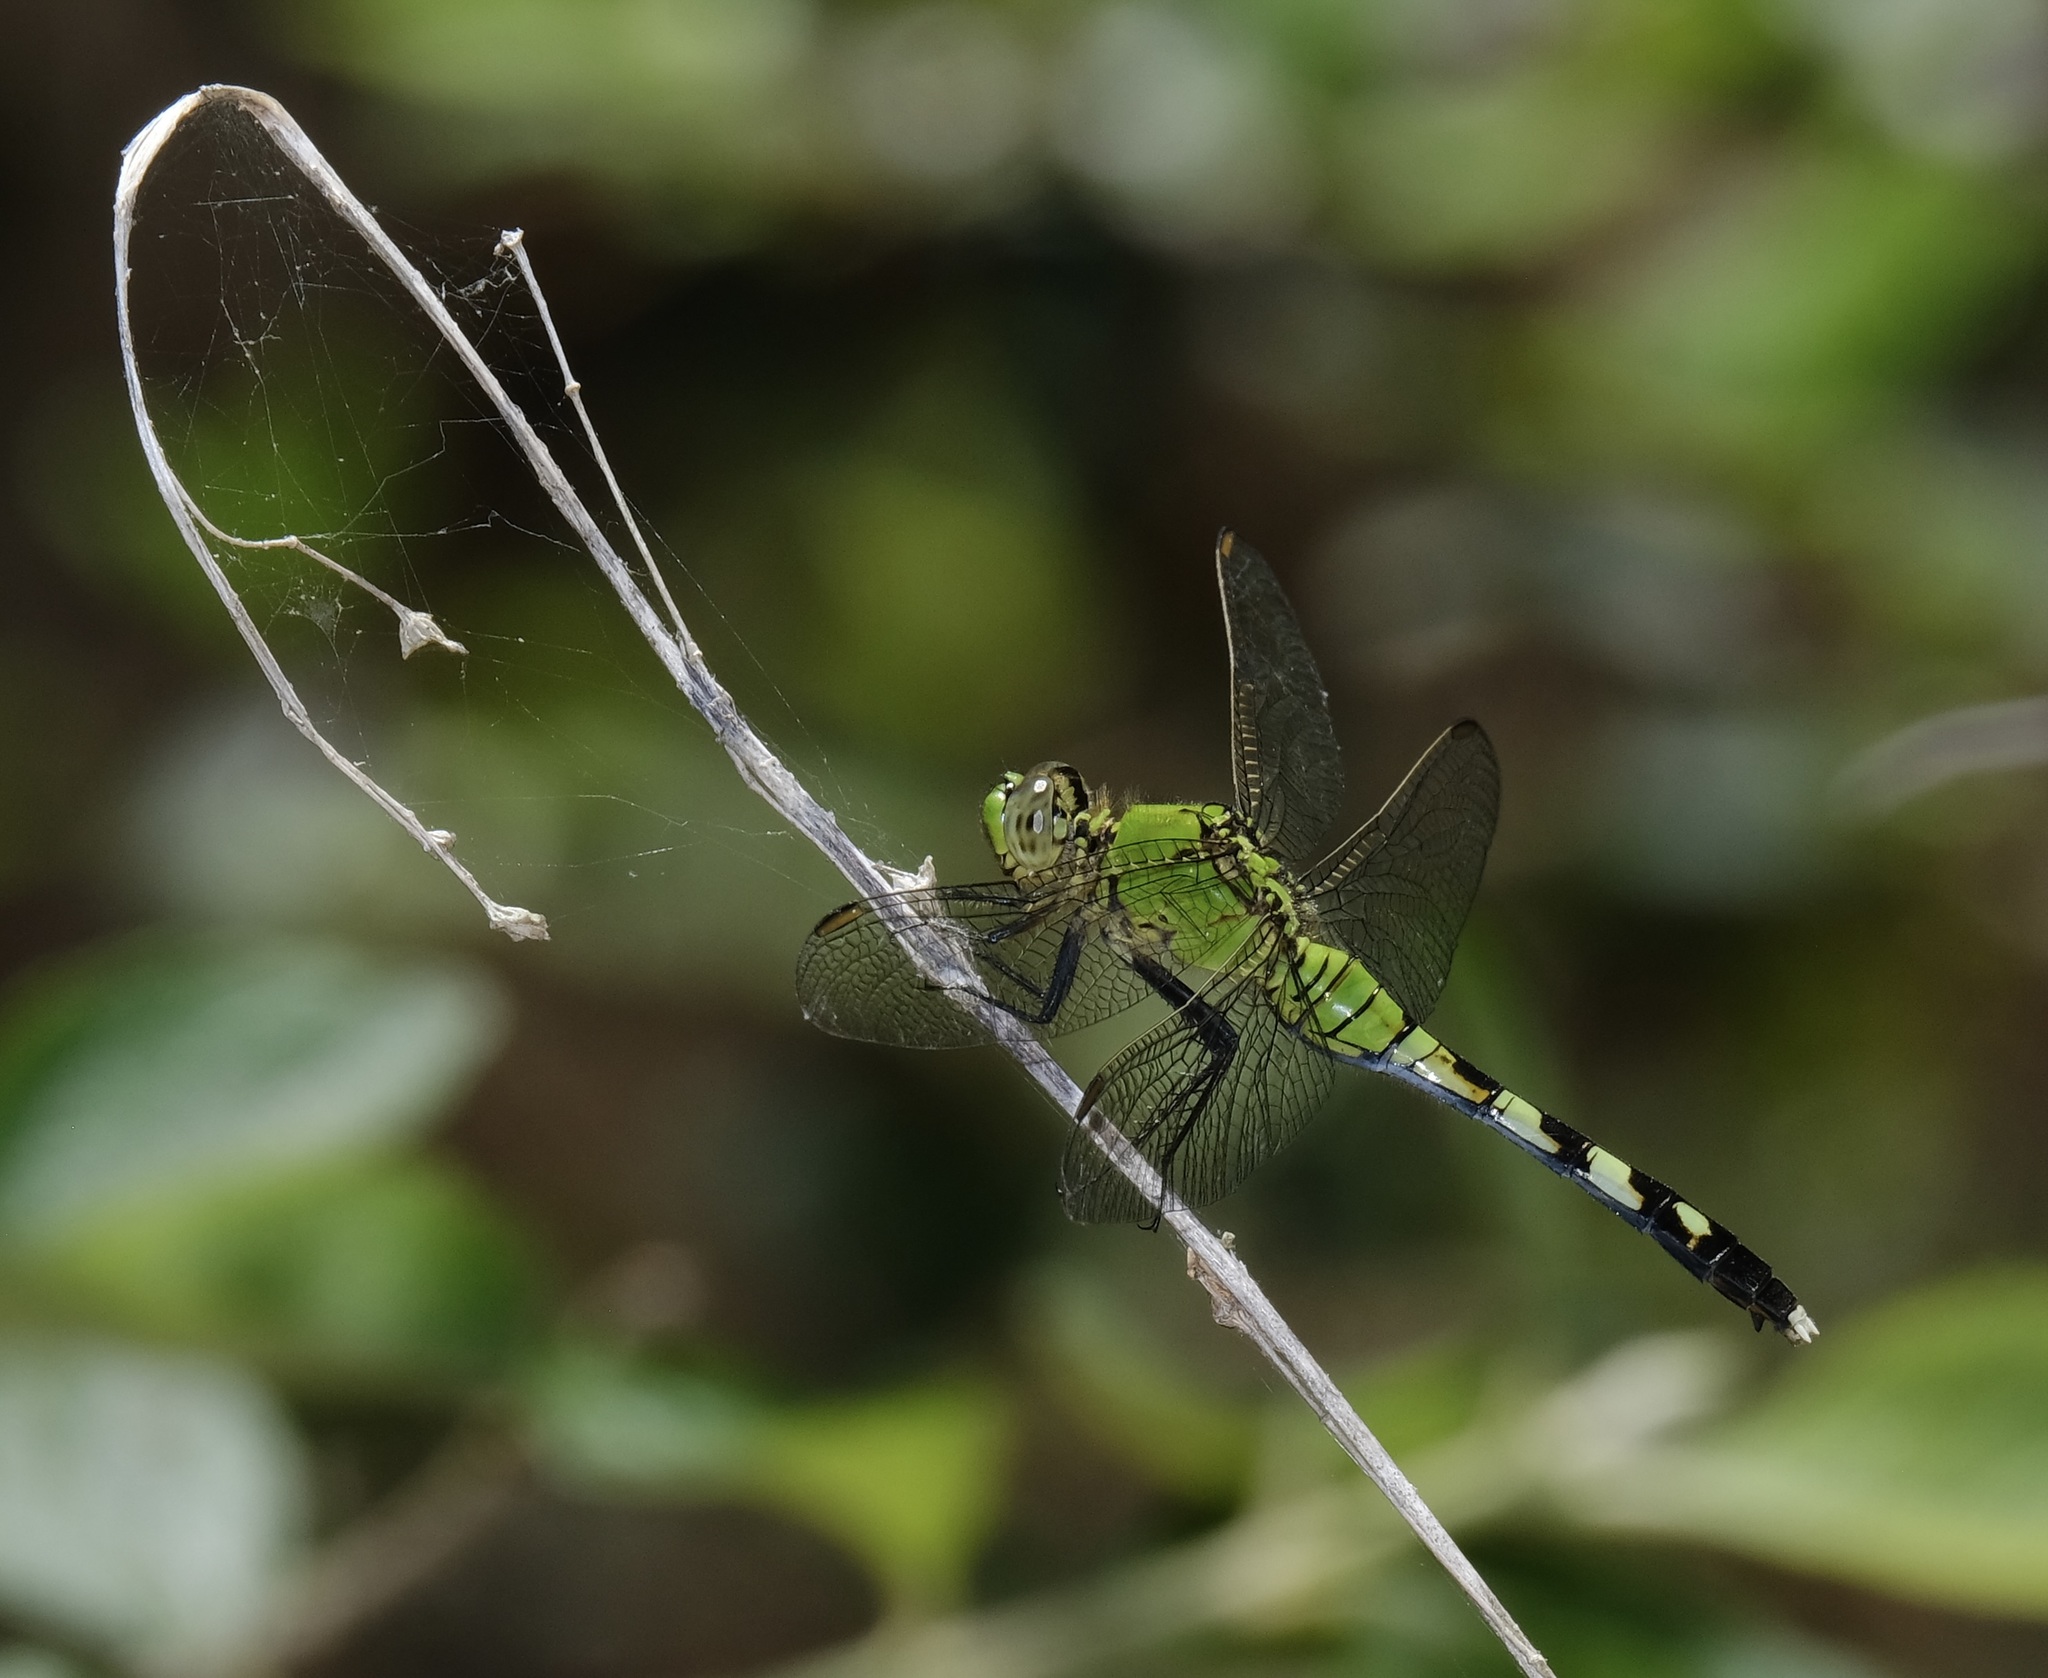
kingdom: Animalia
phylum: Arthropoda
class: Insecta
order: Odonata
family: Libellulidae
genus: Erythemis
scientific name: Erythemis simplicicollis
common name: Eastern pondhawk
